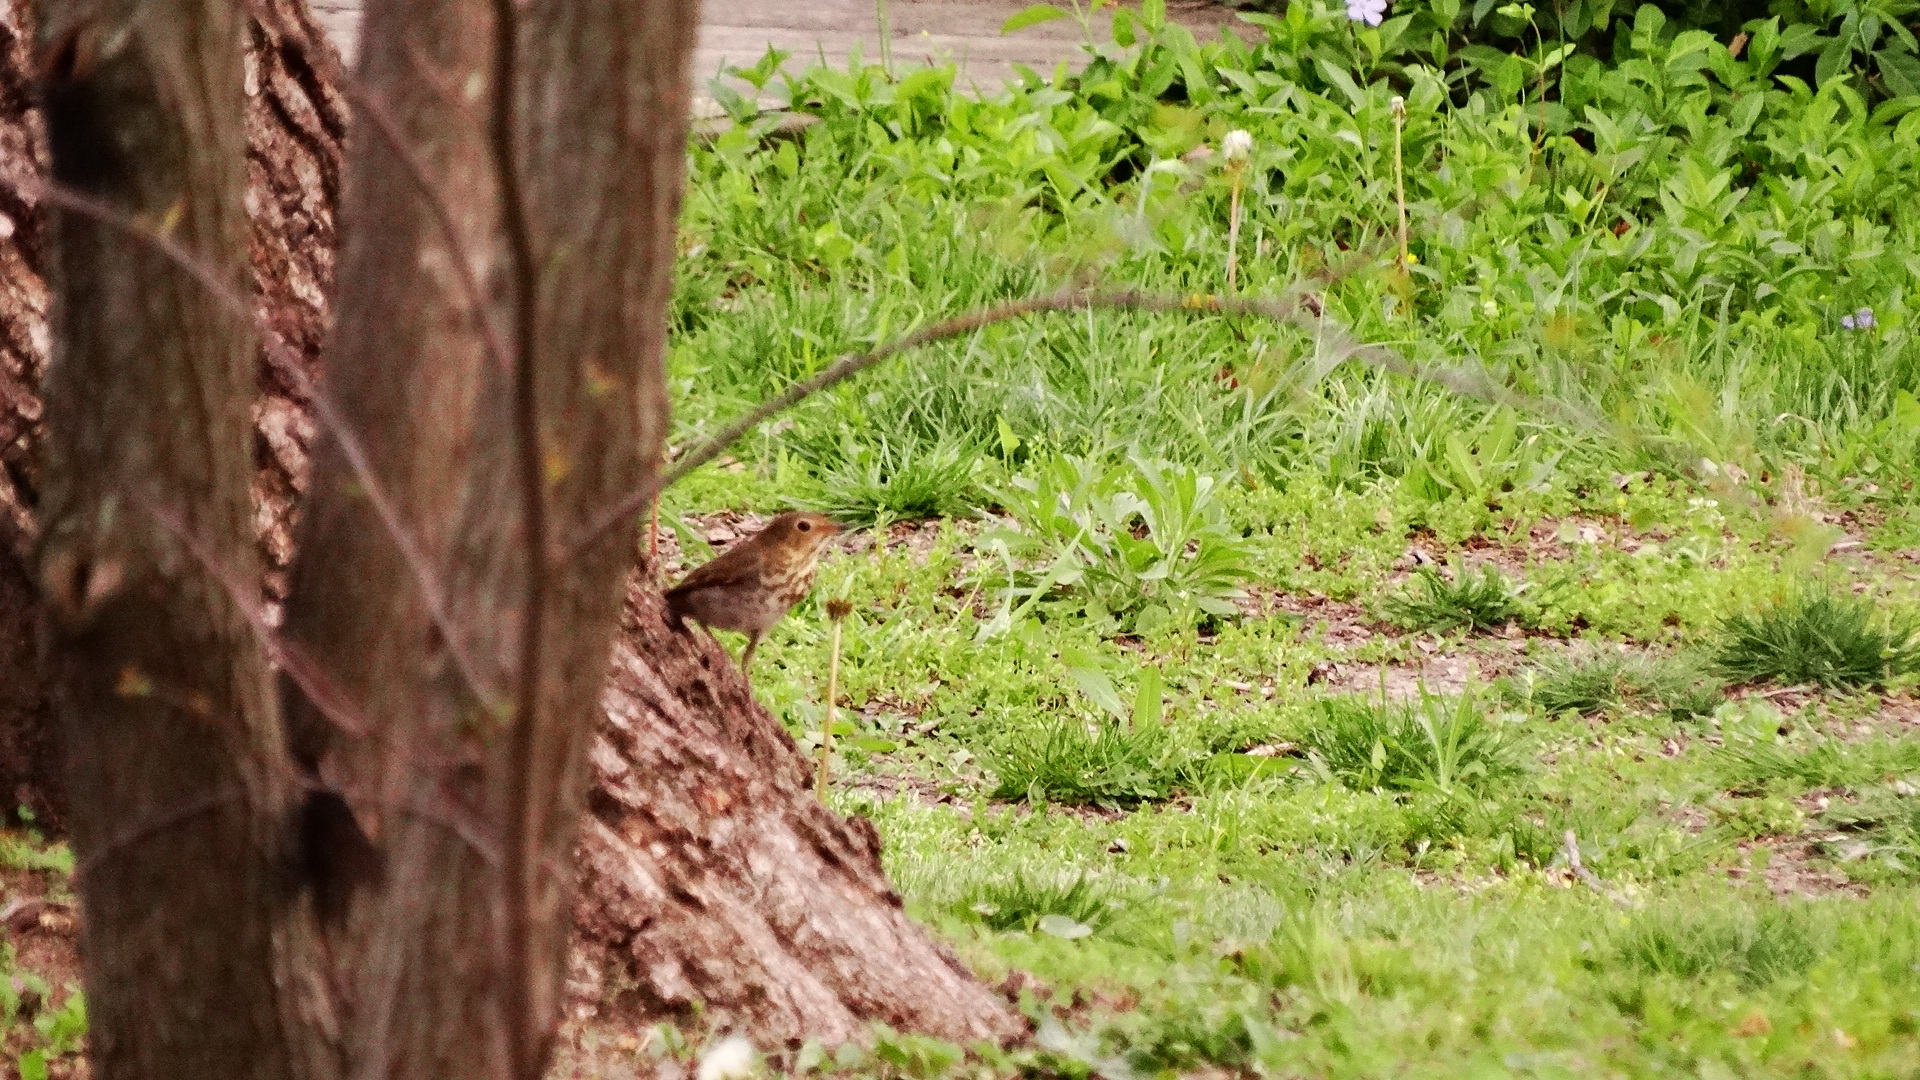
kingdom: Animalia
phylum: Chordata
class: Aves
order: Passeriformes
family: Turdidae
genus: Catharus
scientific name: Catharus ustulatus
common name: Swainson's thrush
